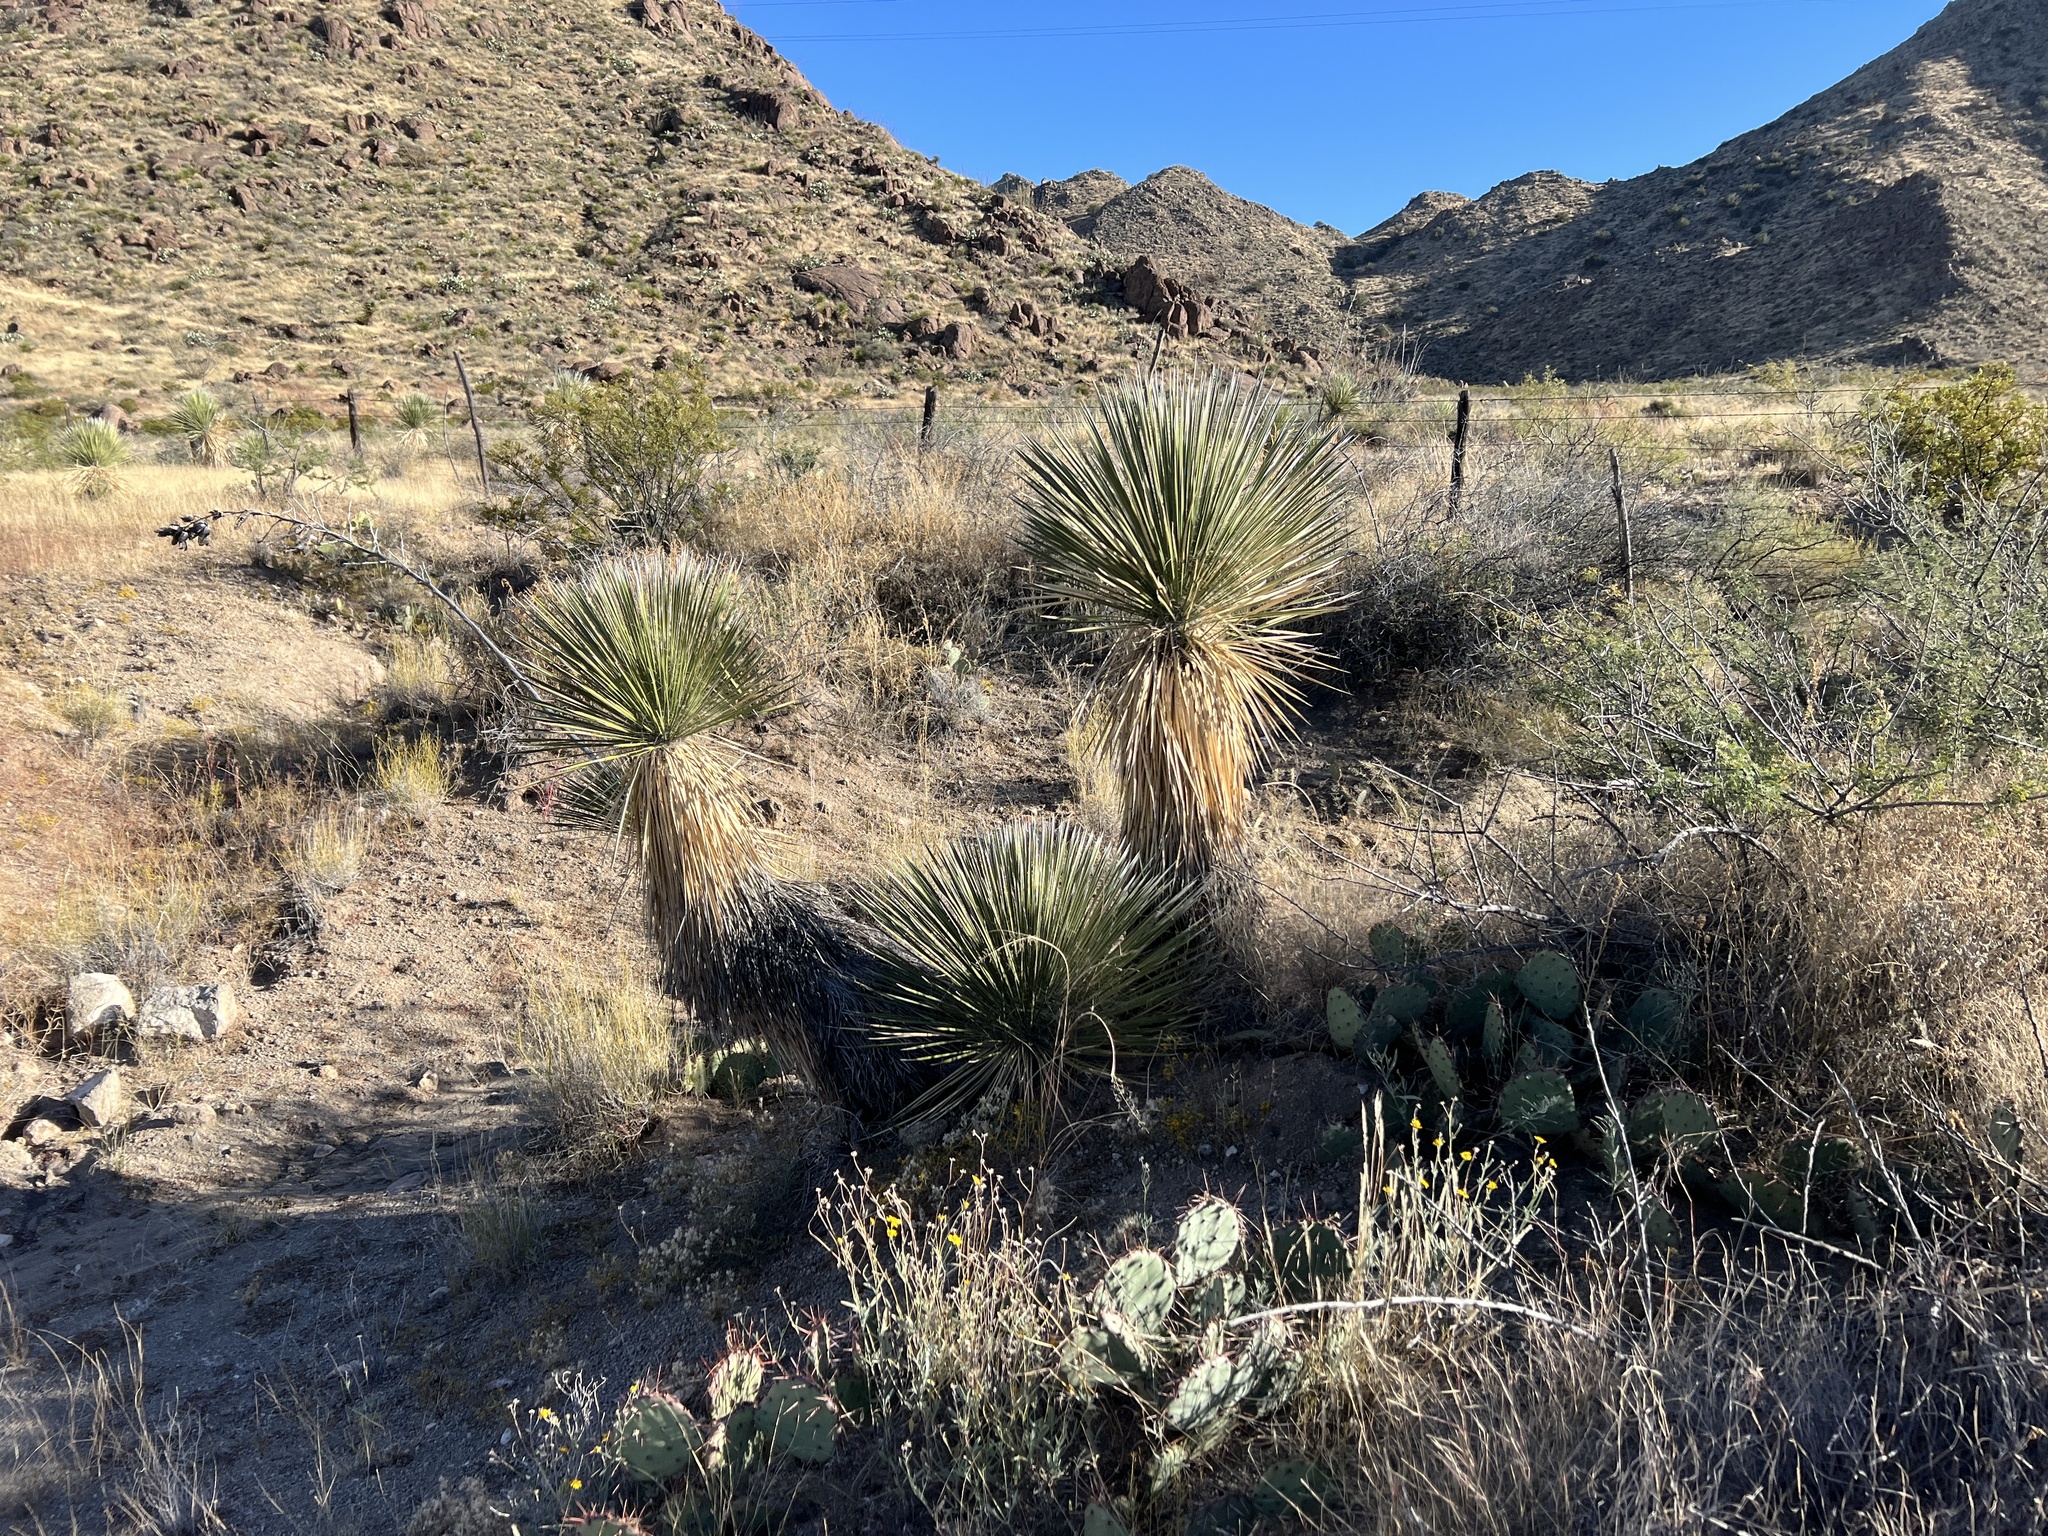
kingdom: Plantae
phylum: Tracheophyta
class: Liliopsida
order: Asparagales
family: Asparagaceae
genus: Yucca
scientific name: Yucca elata
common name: Palmella
